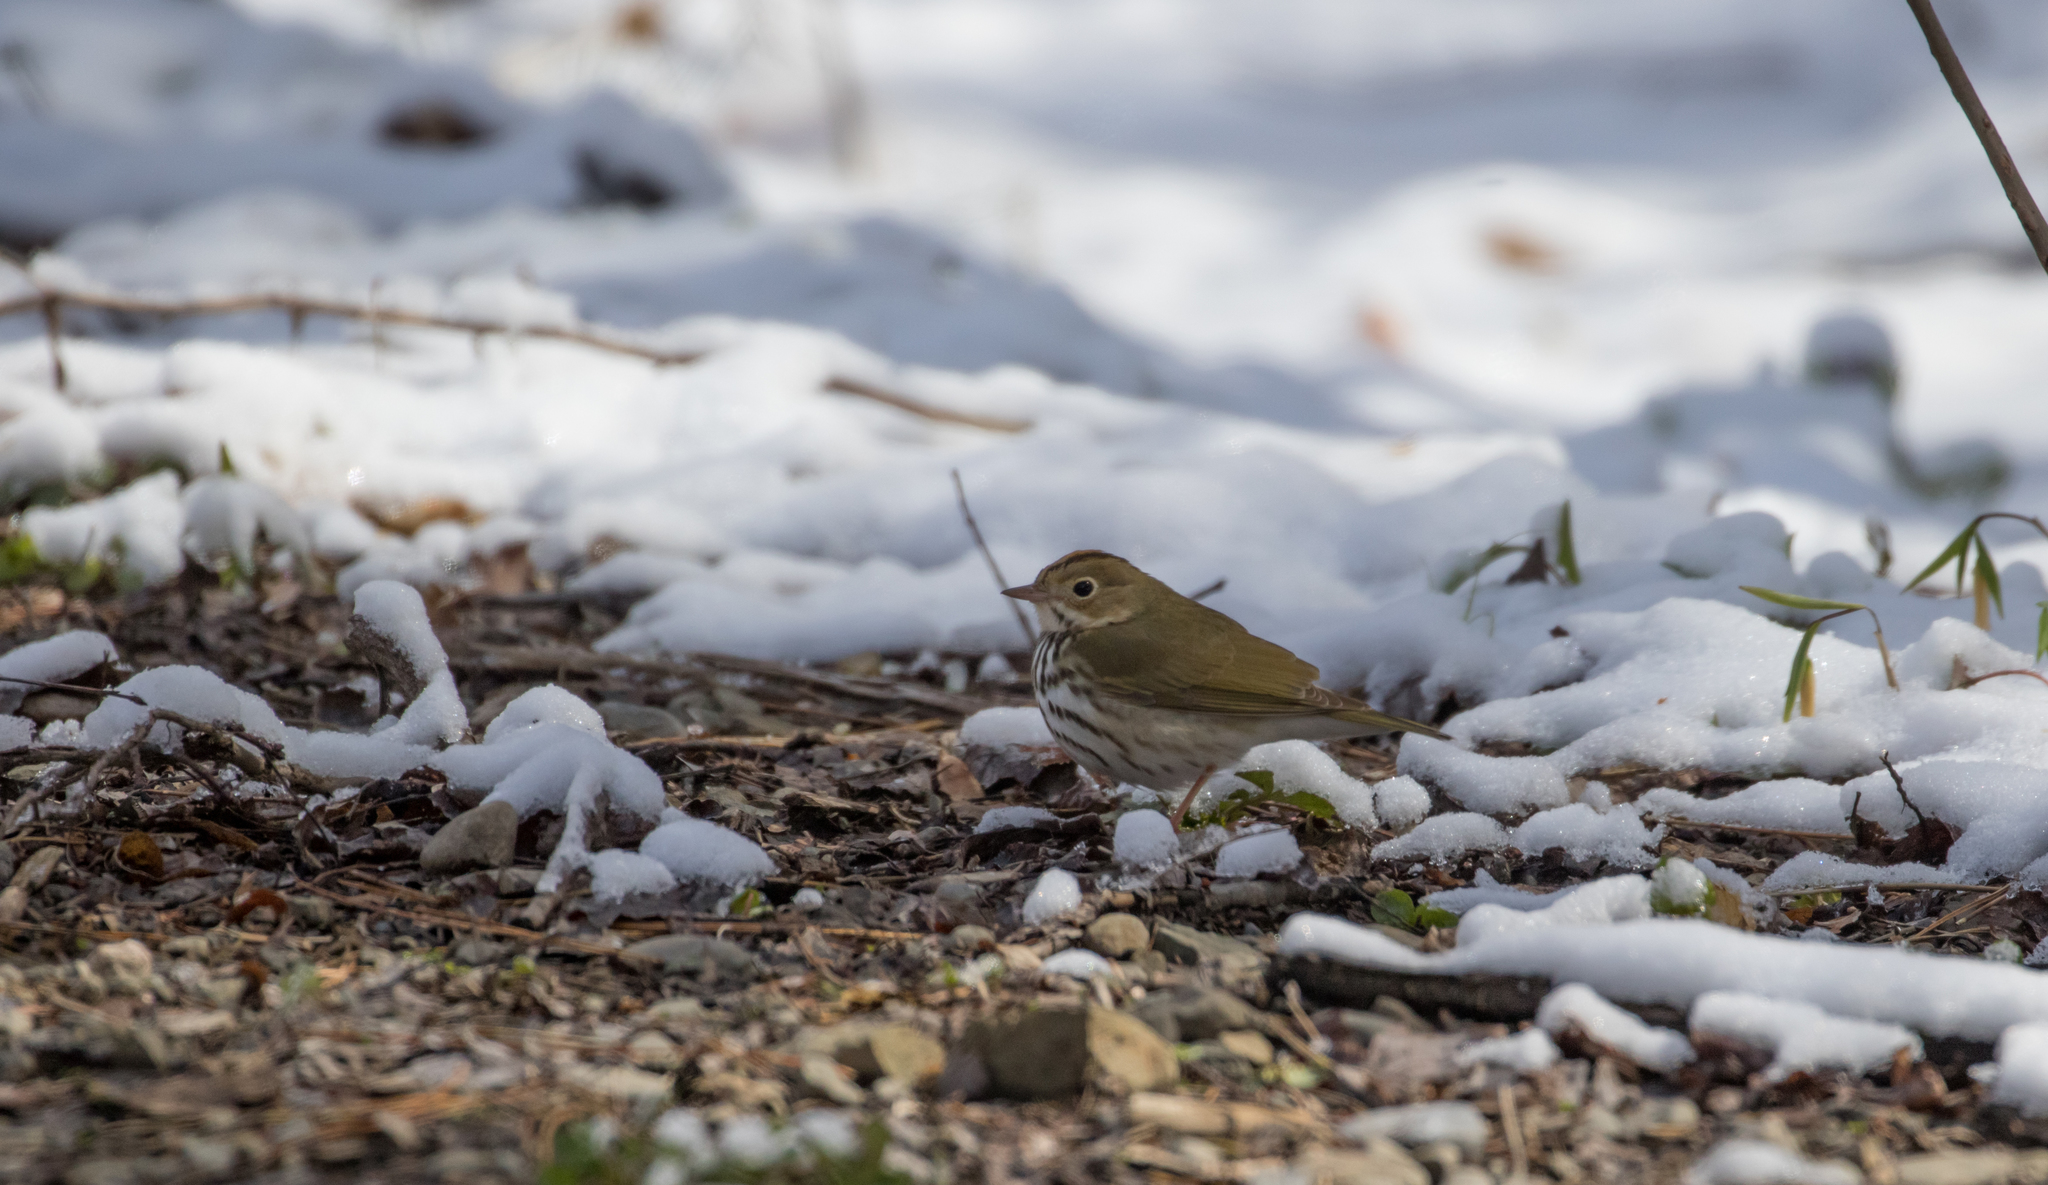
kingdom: Animalia
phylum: Chordata
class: Aves
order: Passeriformes
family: Parulidae
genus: Seiurus
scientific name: Seiurus aurocapilla
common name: Ovenbird
